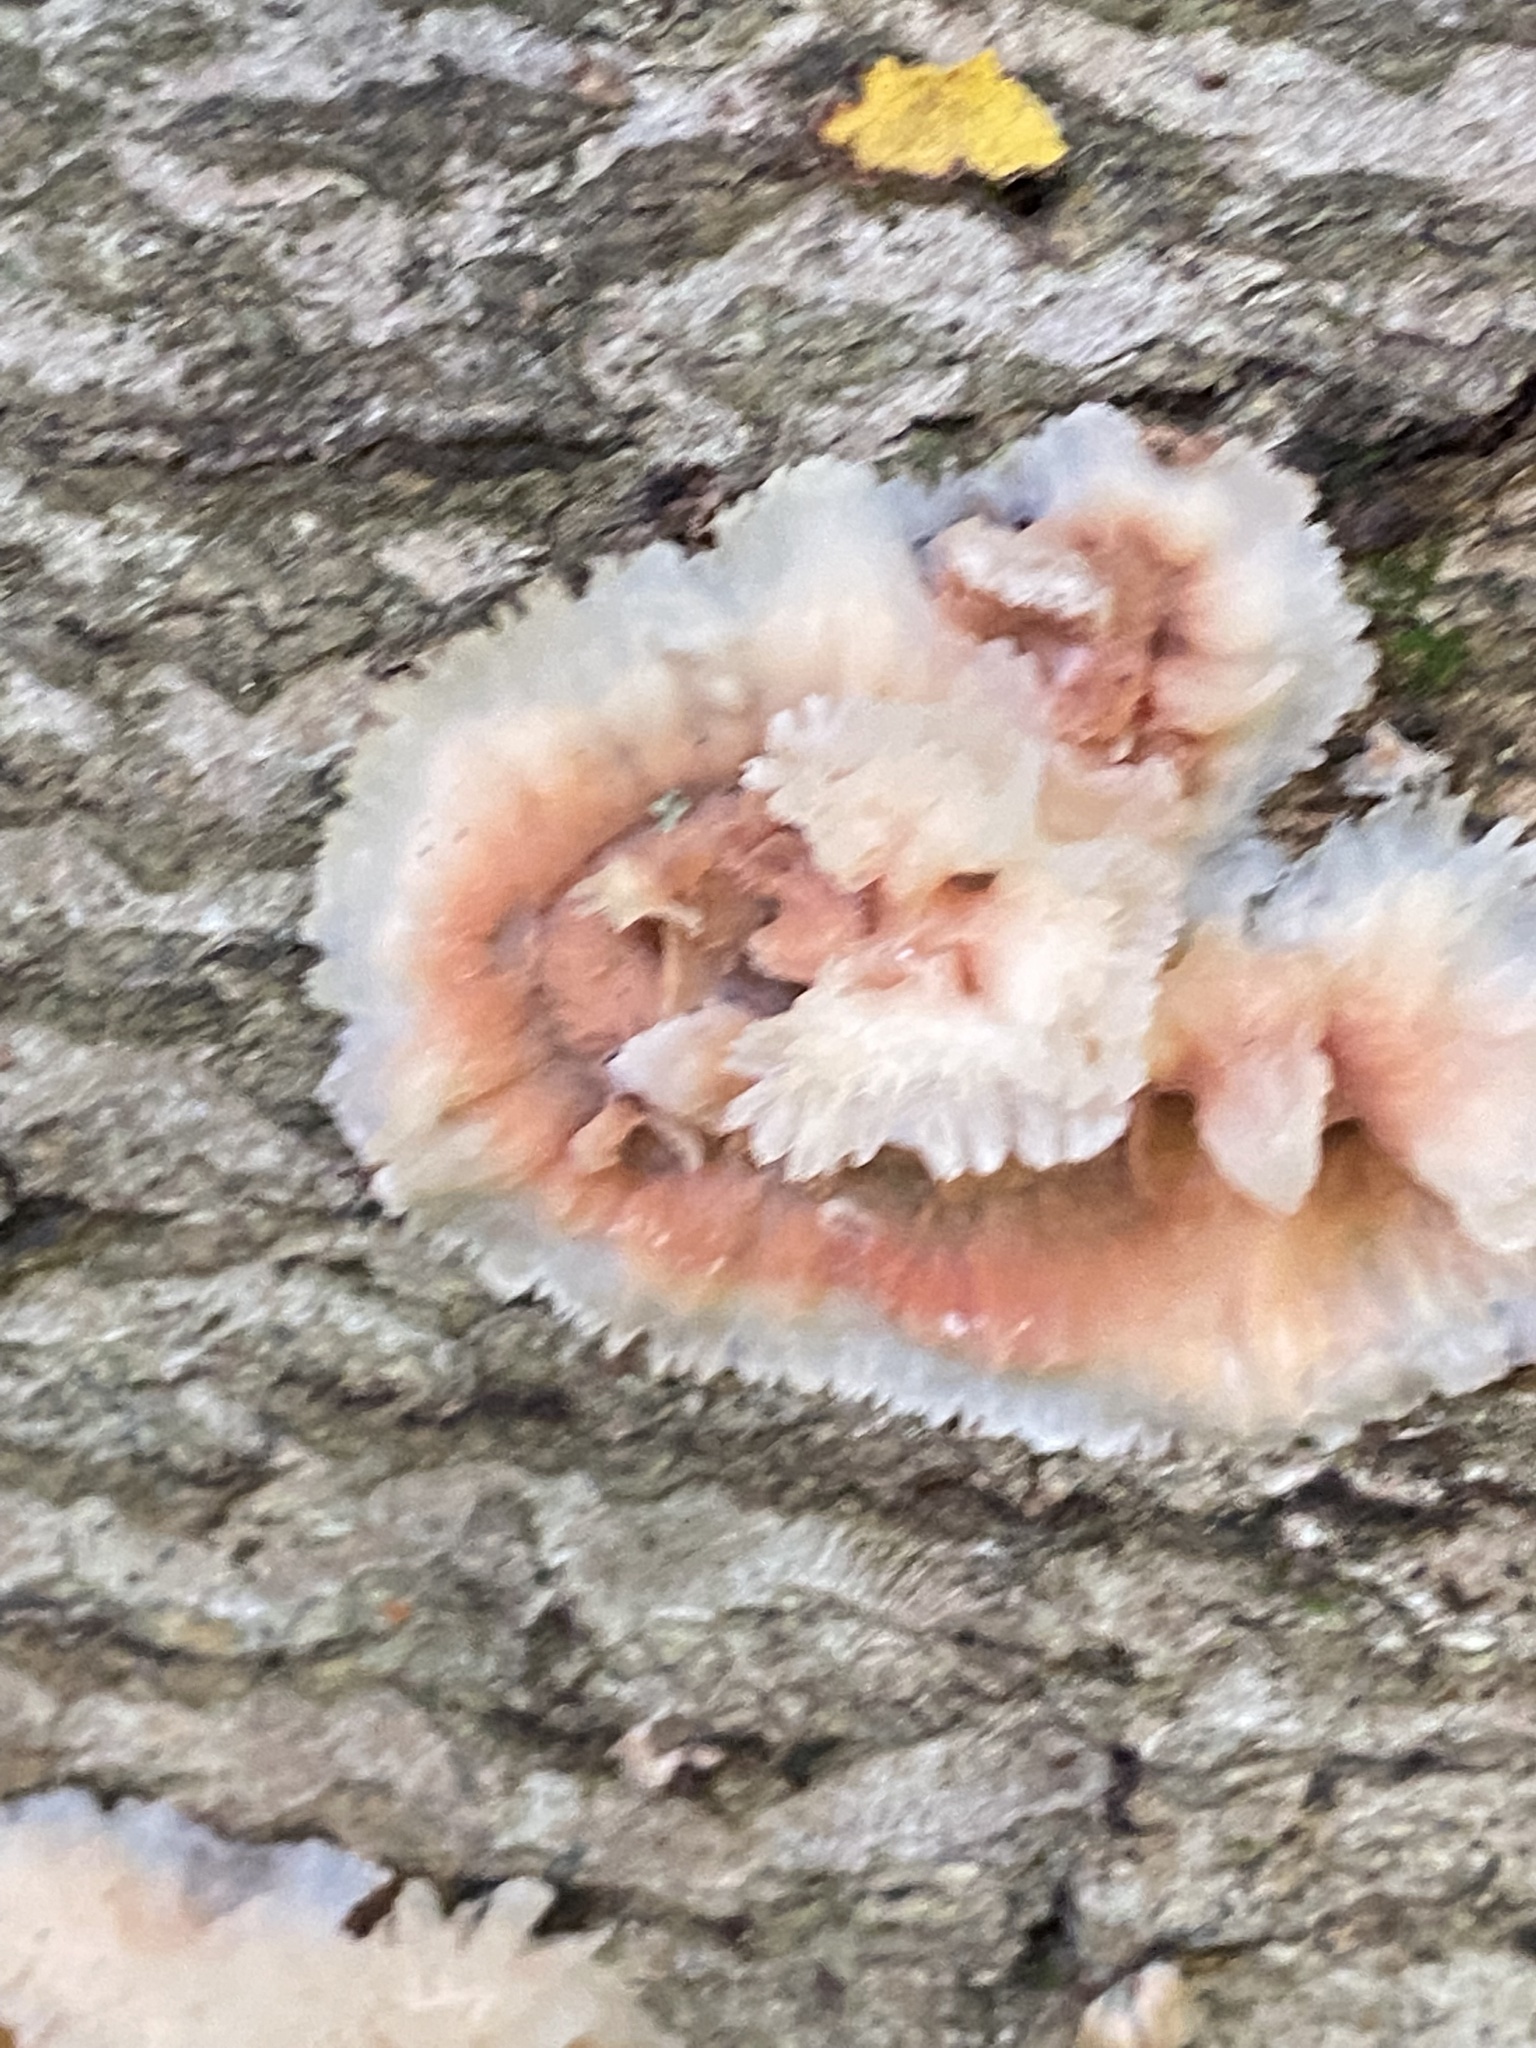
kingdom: Fungi
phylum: Basidiomycota
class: Agaricomycetes
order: Polyporales
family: Meruliaceae
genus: Phlebia
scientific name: Phlebia tremellosa
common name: Jelly rot
